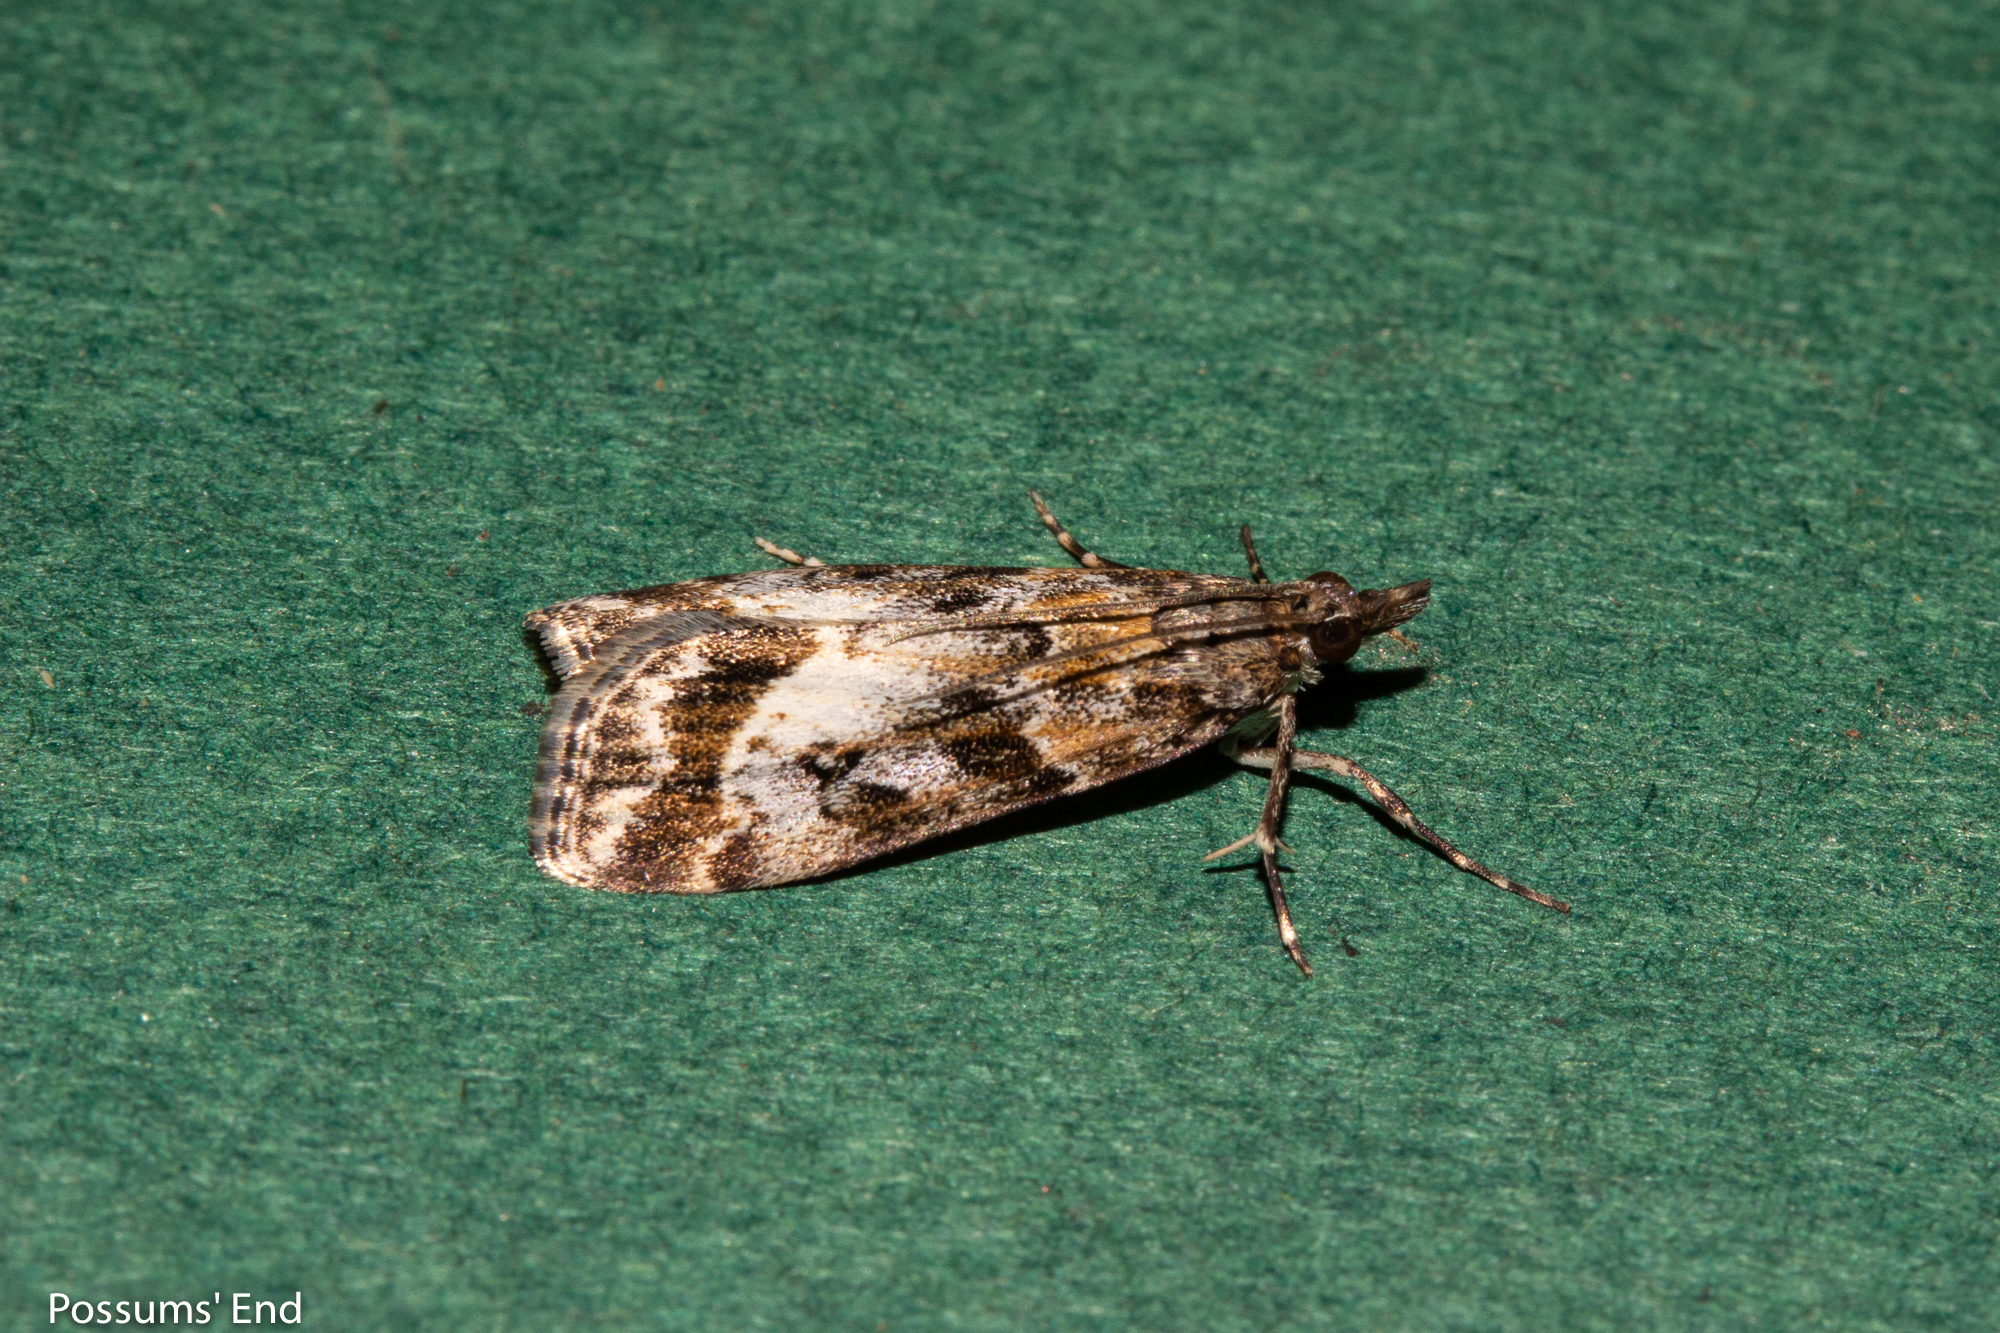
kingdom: Animalia
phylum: Arthropoda
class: Insecta
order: Lepidoptera
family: Crambidae
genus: Eudonia
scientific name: Eudonia legnota
